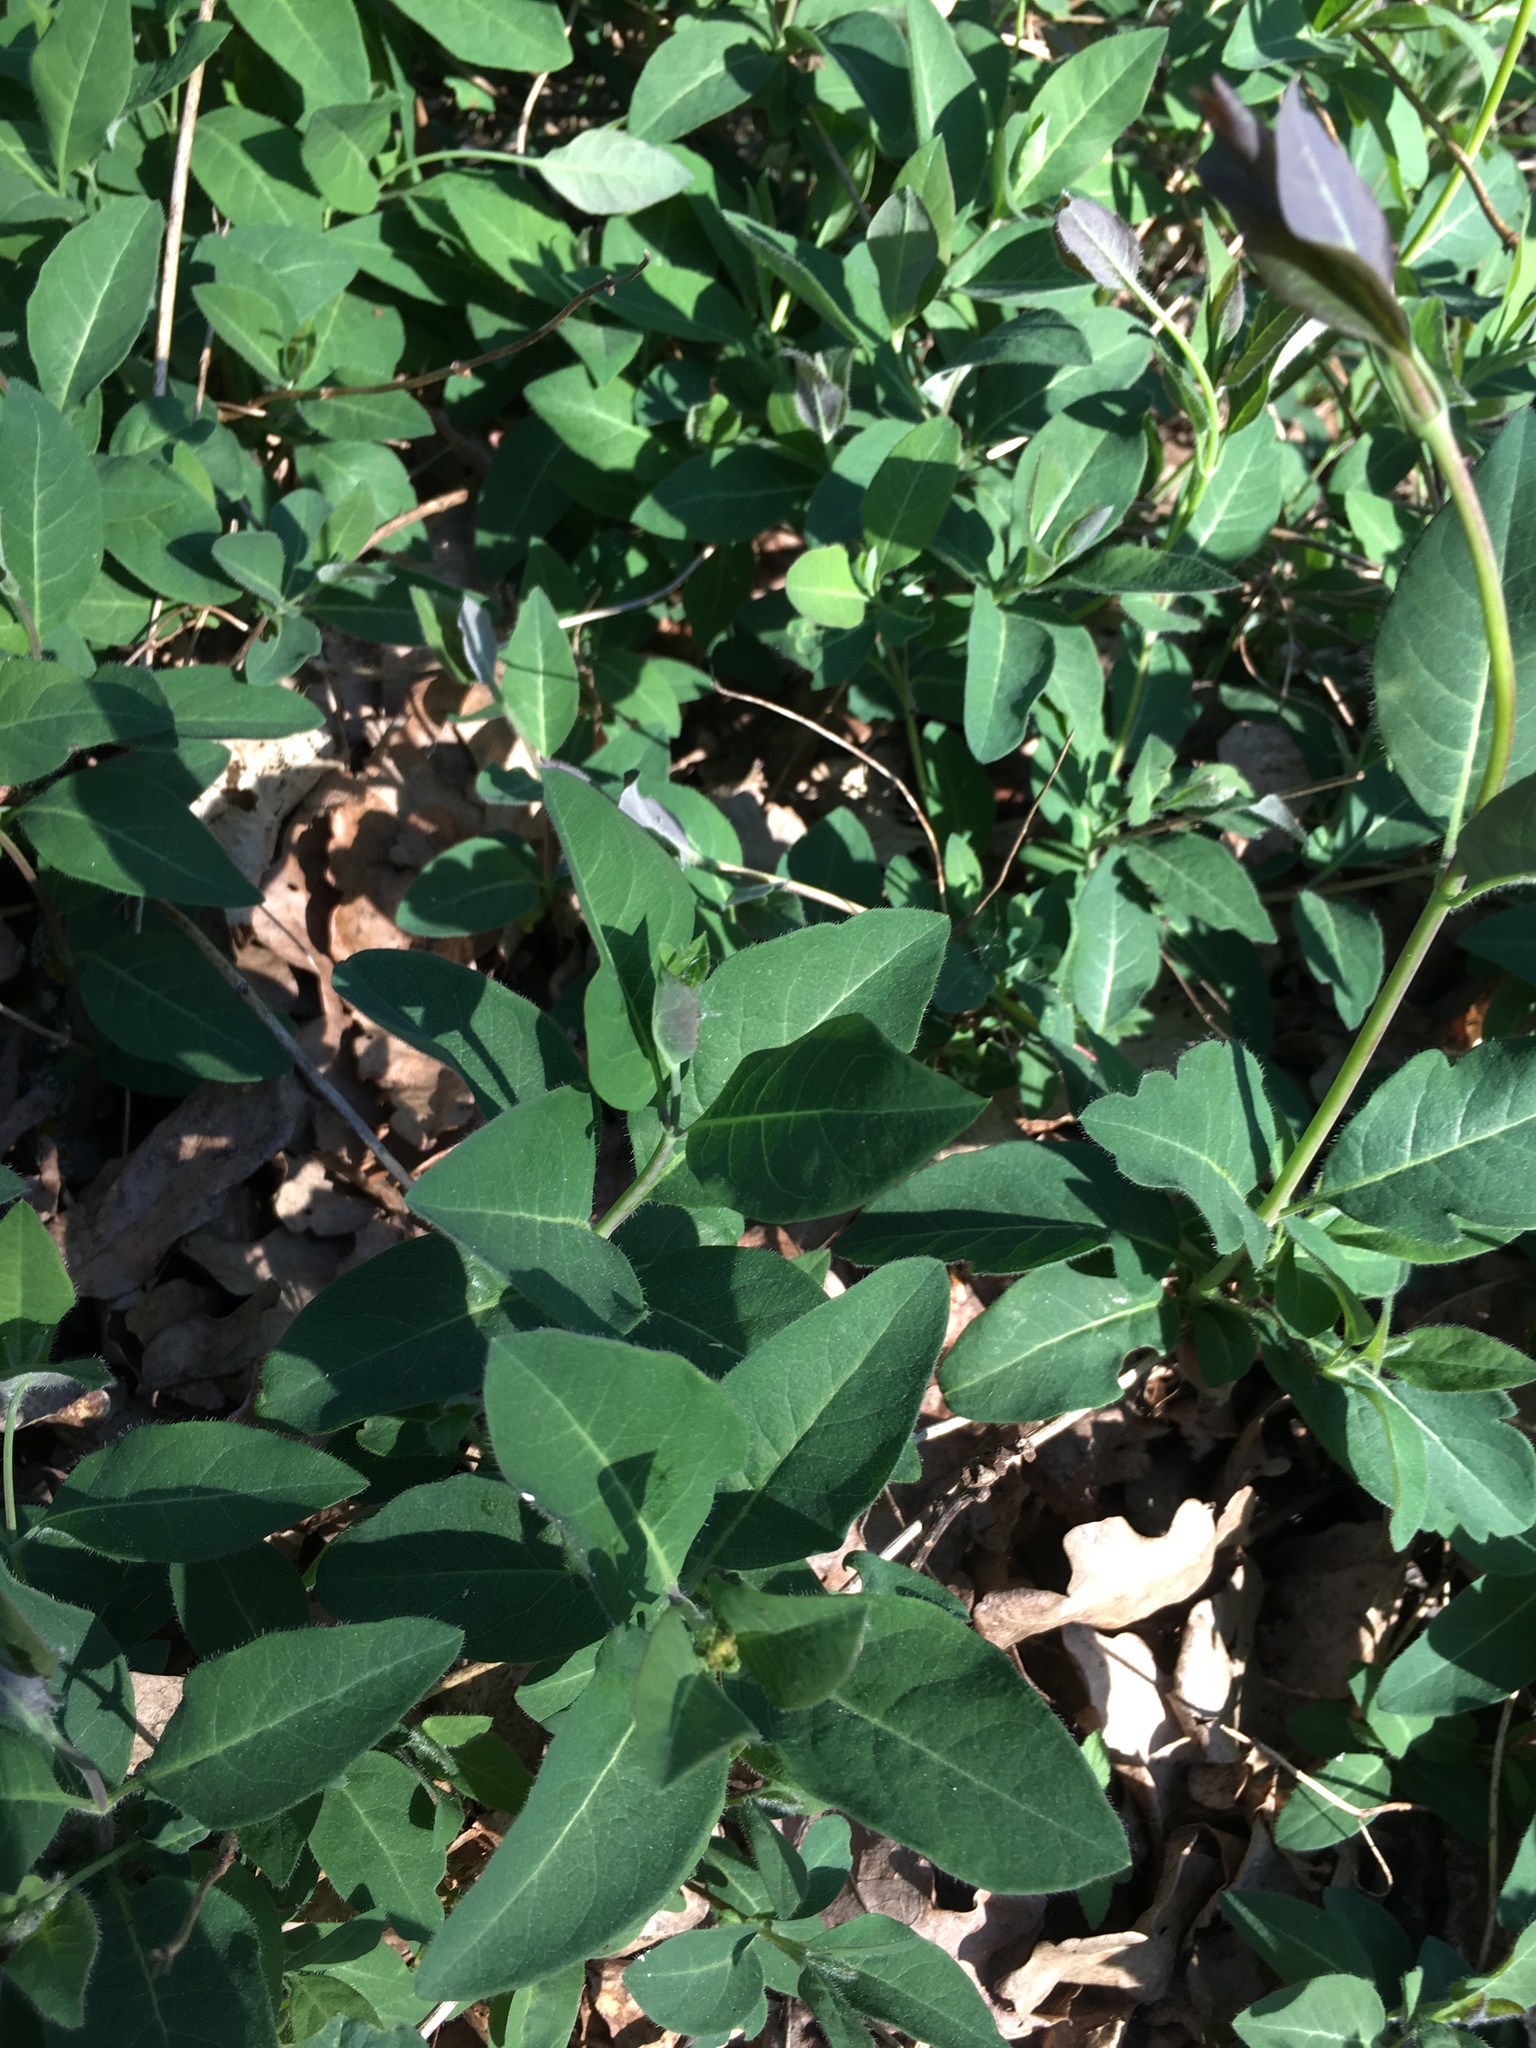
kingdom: Plantae
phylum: Tracheophyta
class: Magnoliopsida
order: Dipsacales
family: Caprifoliaceae
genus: Lonicera
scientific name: Lonicera periclymenum
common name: European honeysuckle
